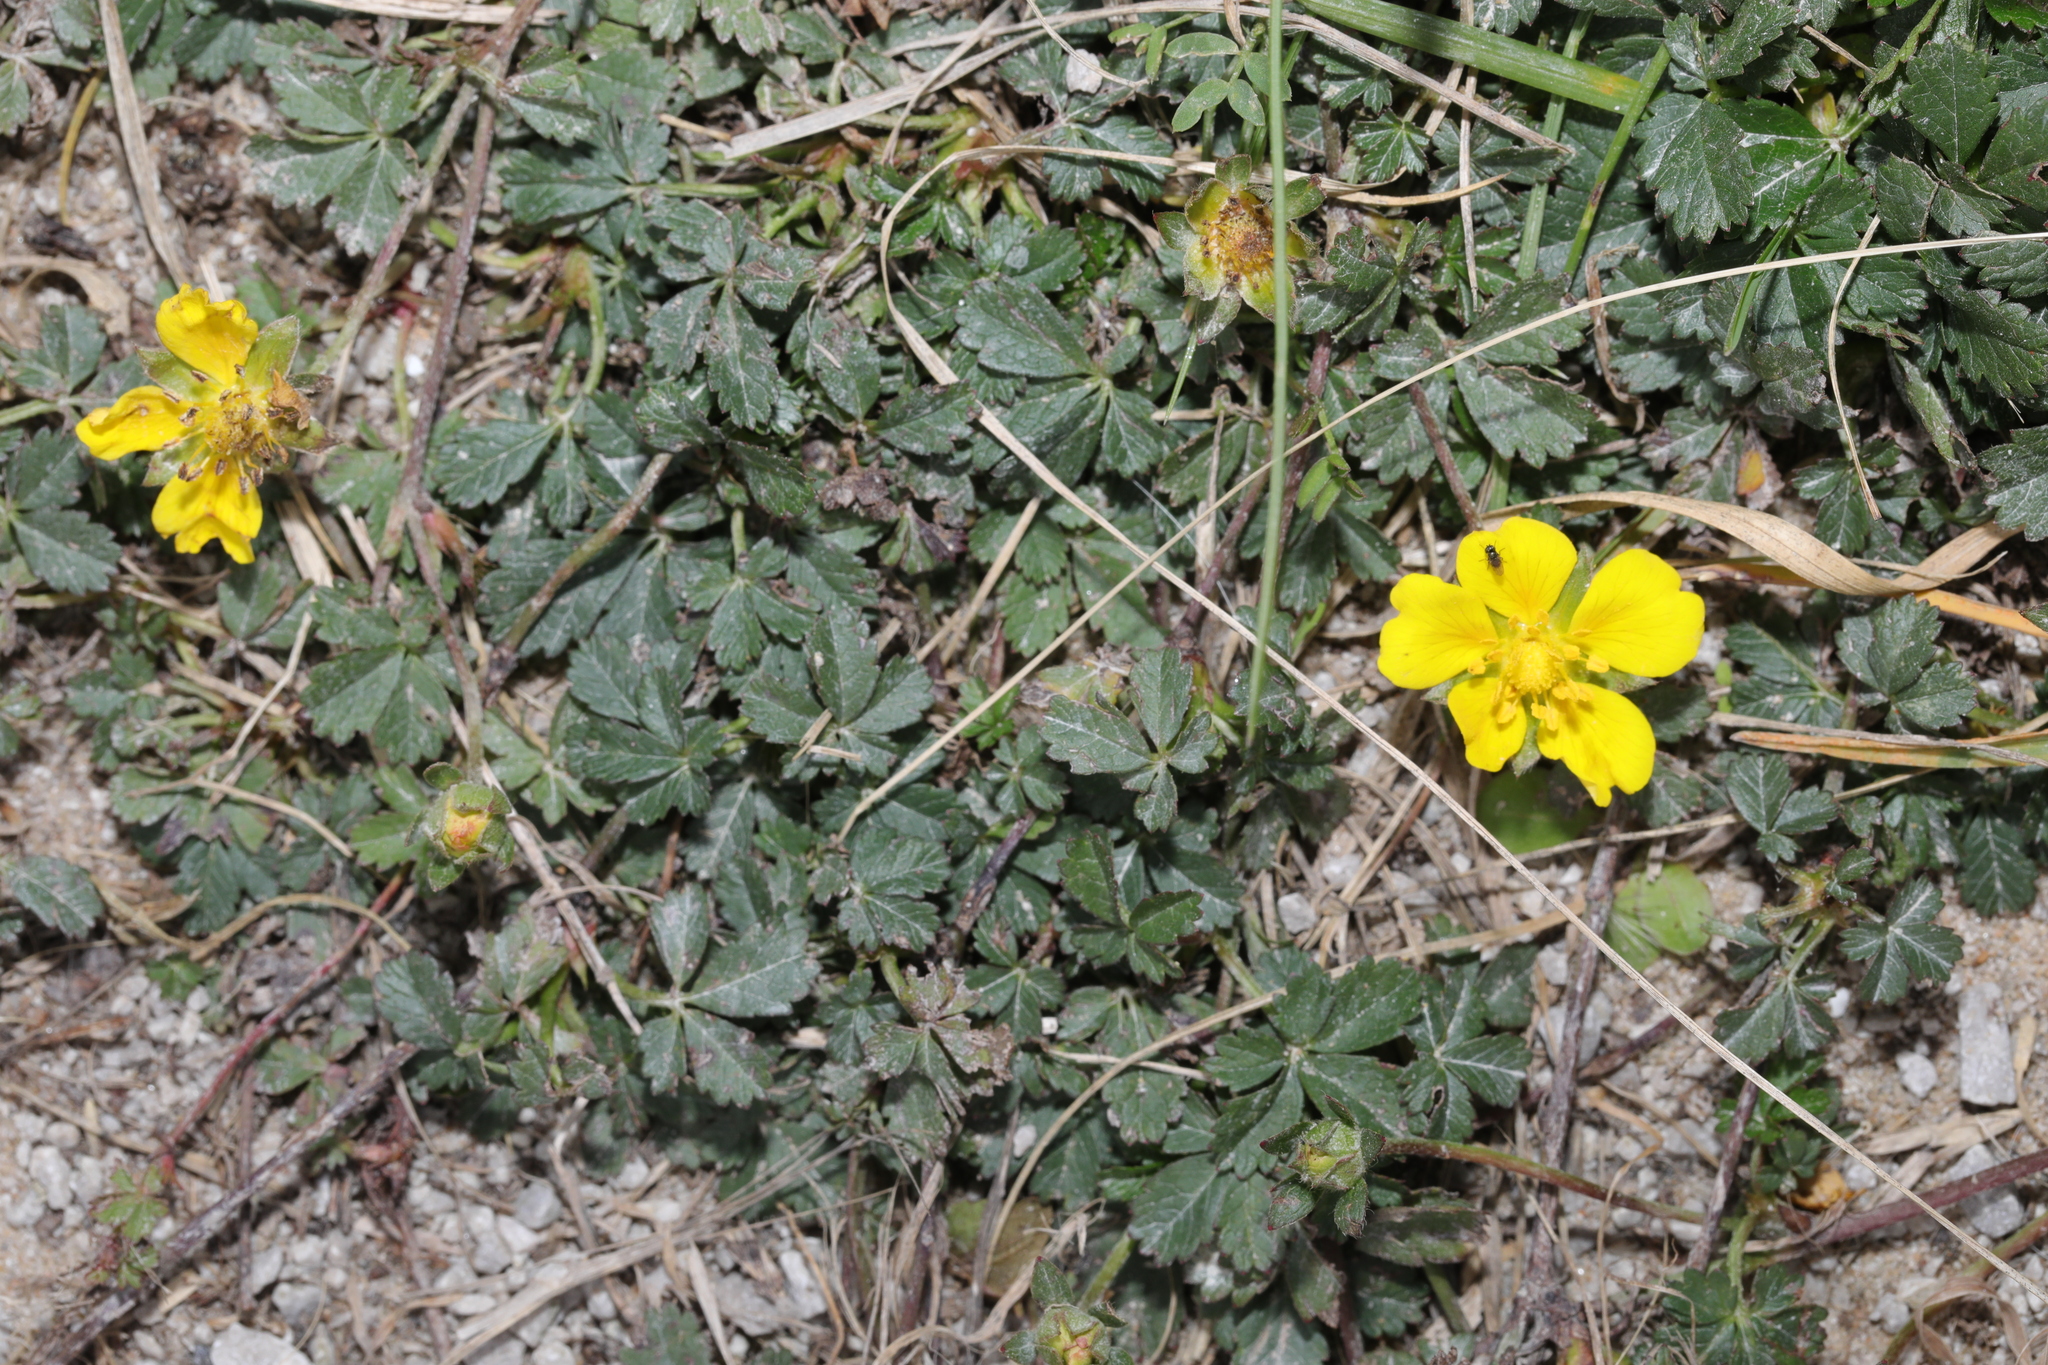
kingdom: Plantae
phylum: Tracheophyta
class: Magnoliopsida
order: Rosales
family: Rosaceae
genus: Potentilla
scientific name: Potentilla reptans
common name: Creeping cinquefoil
